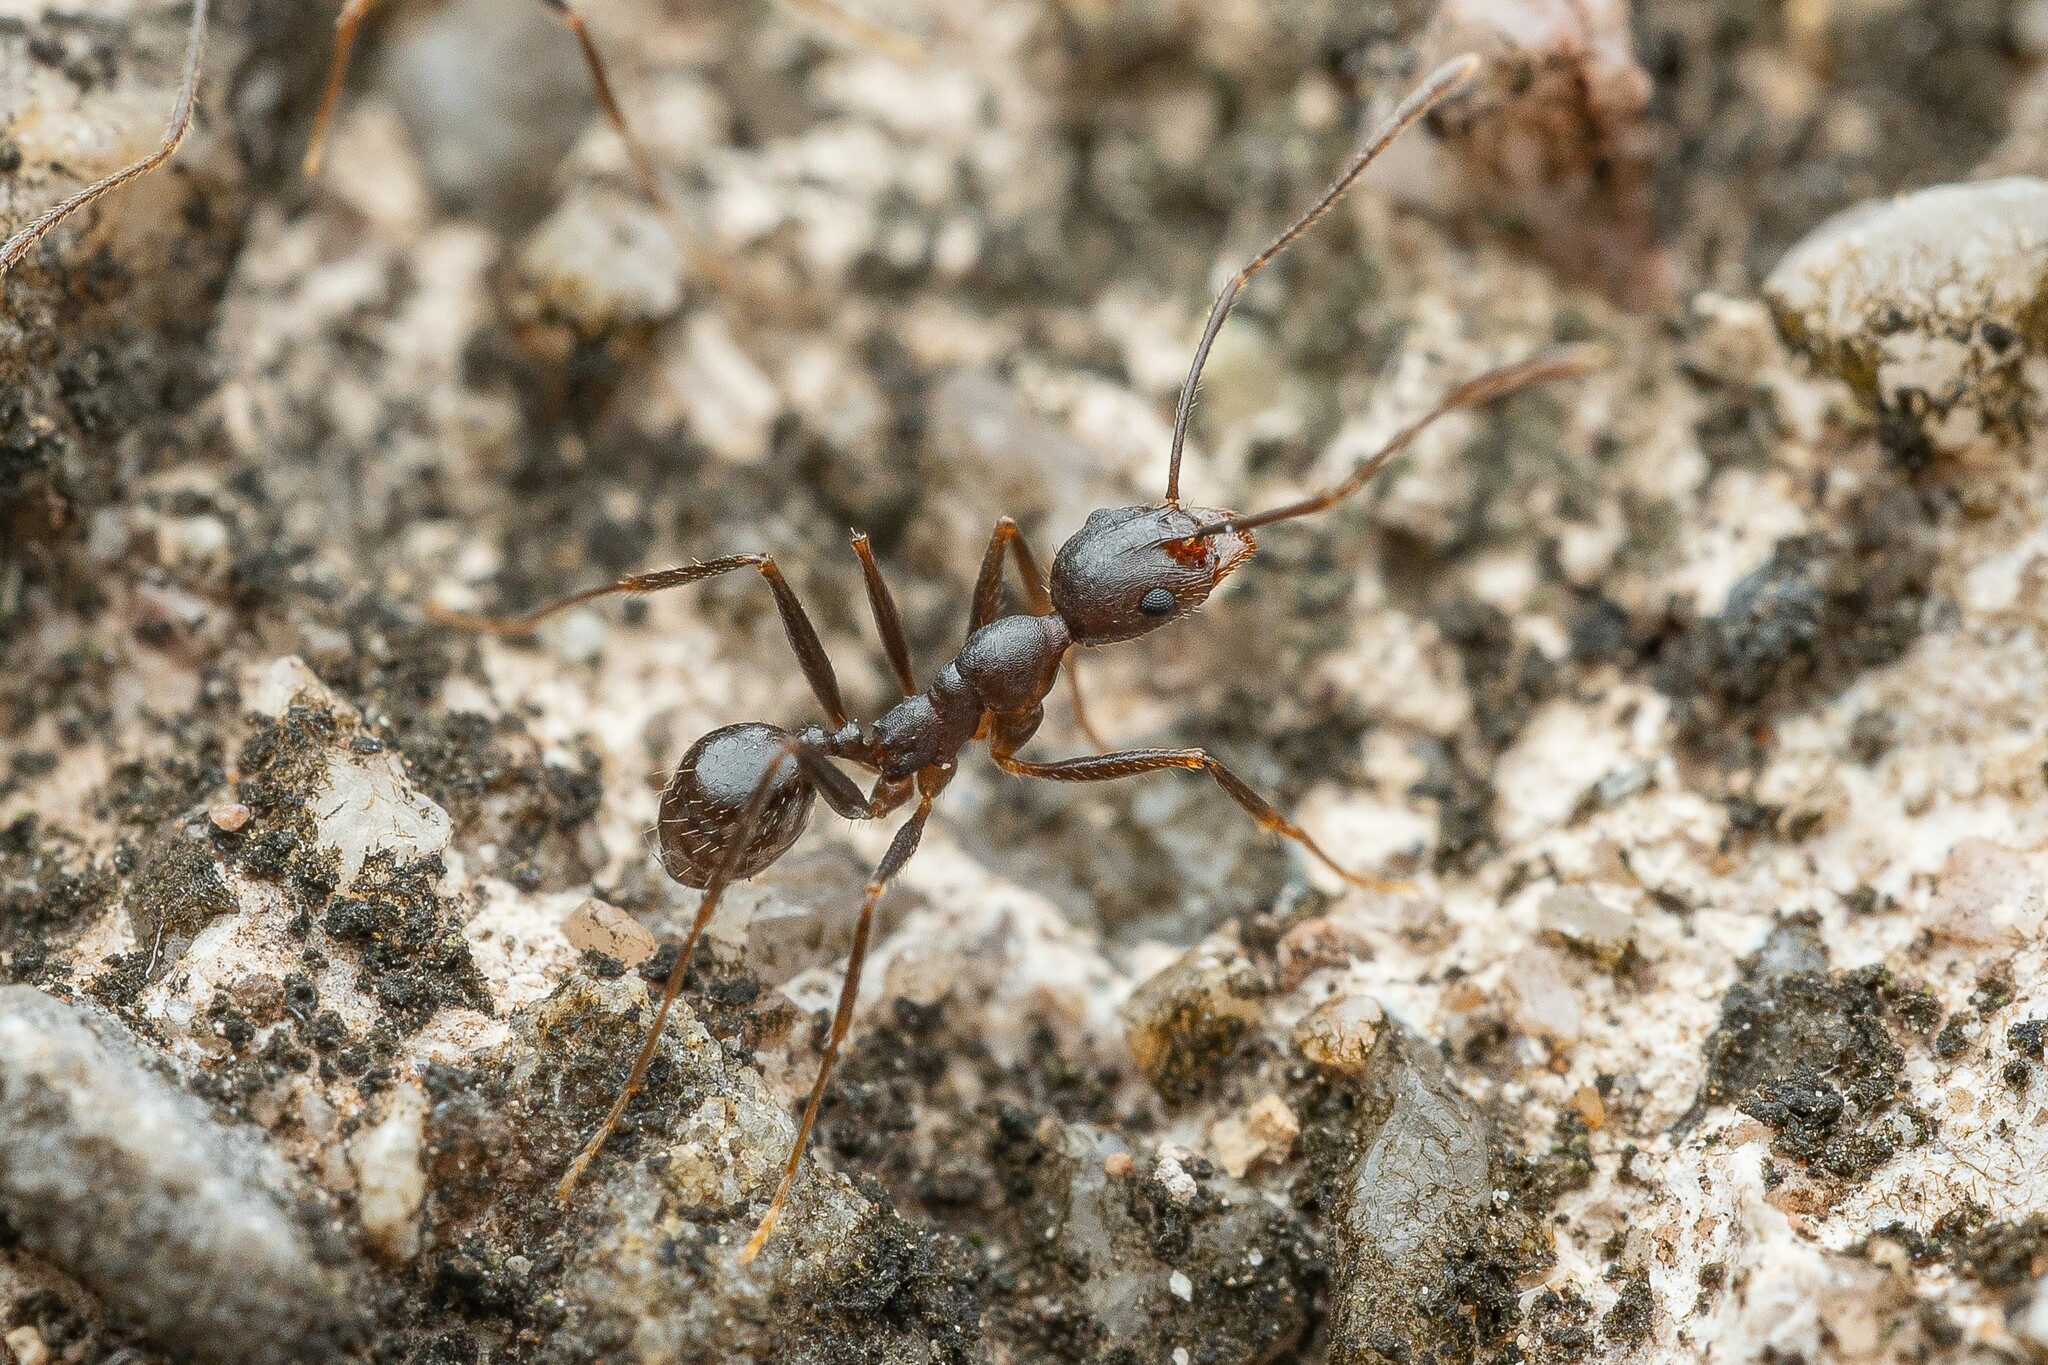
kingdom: Animalia
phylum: Arthropoda
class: Insecta
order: Hymenoptera
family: Formicidae
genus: Pheidole
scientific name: Pheidole portalensis
